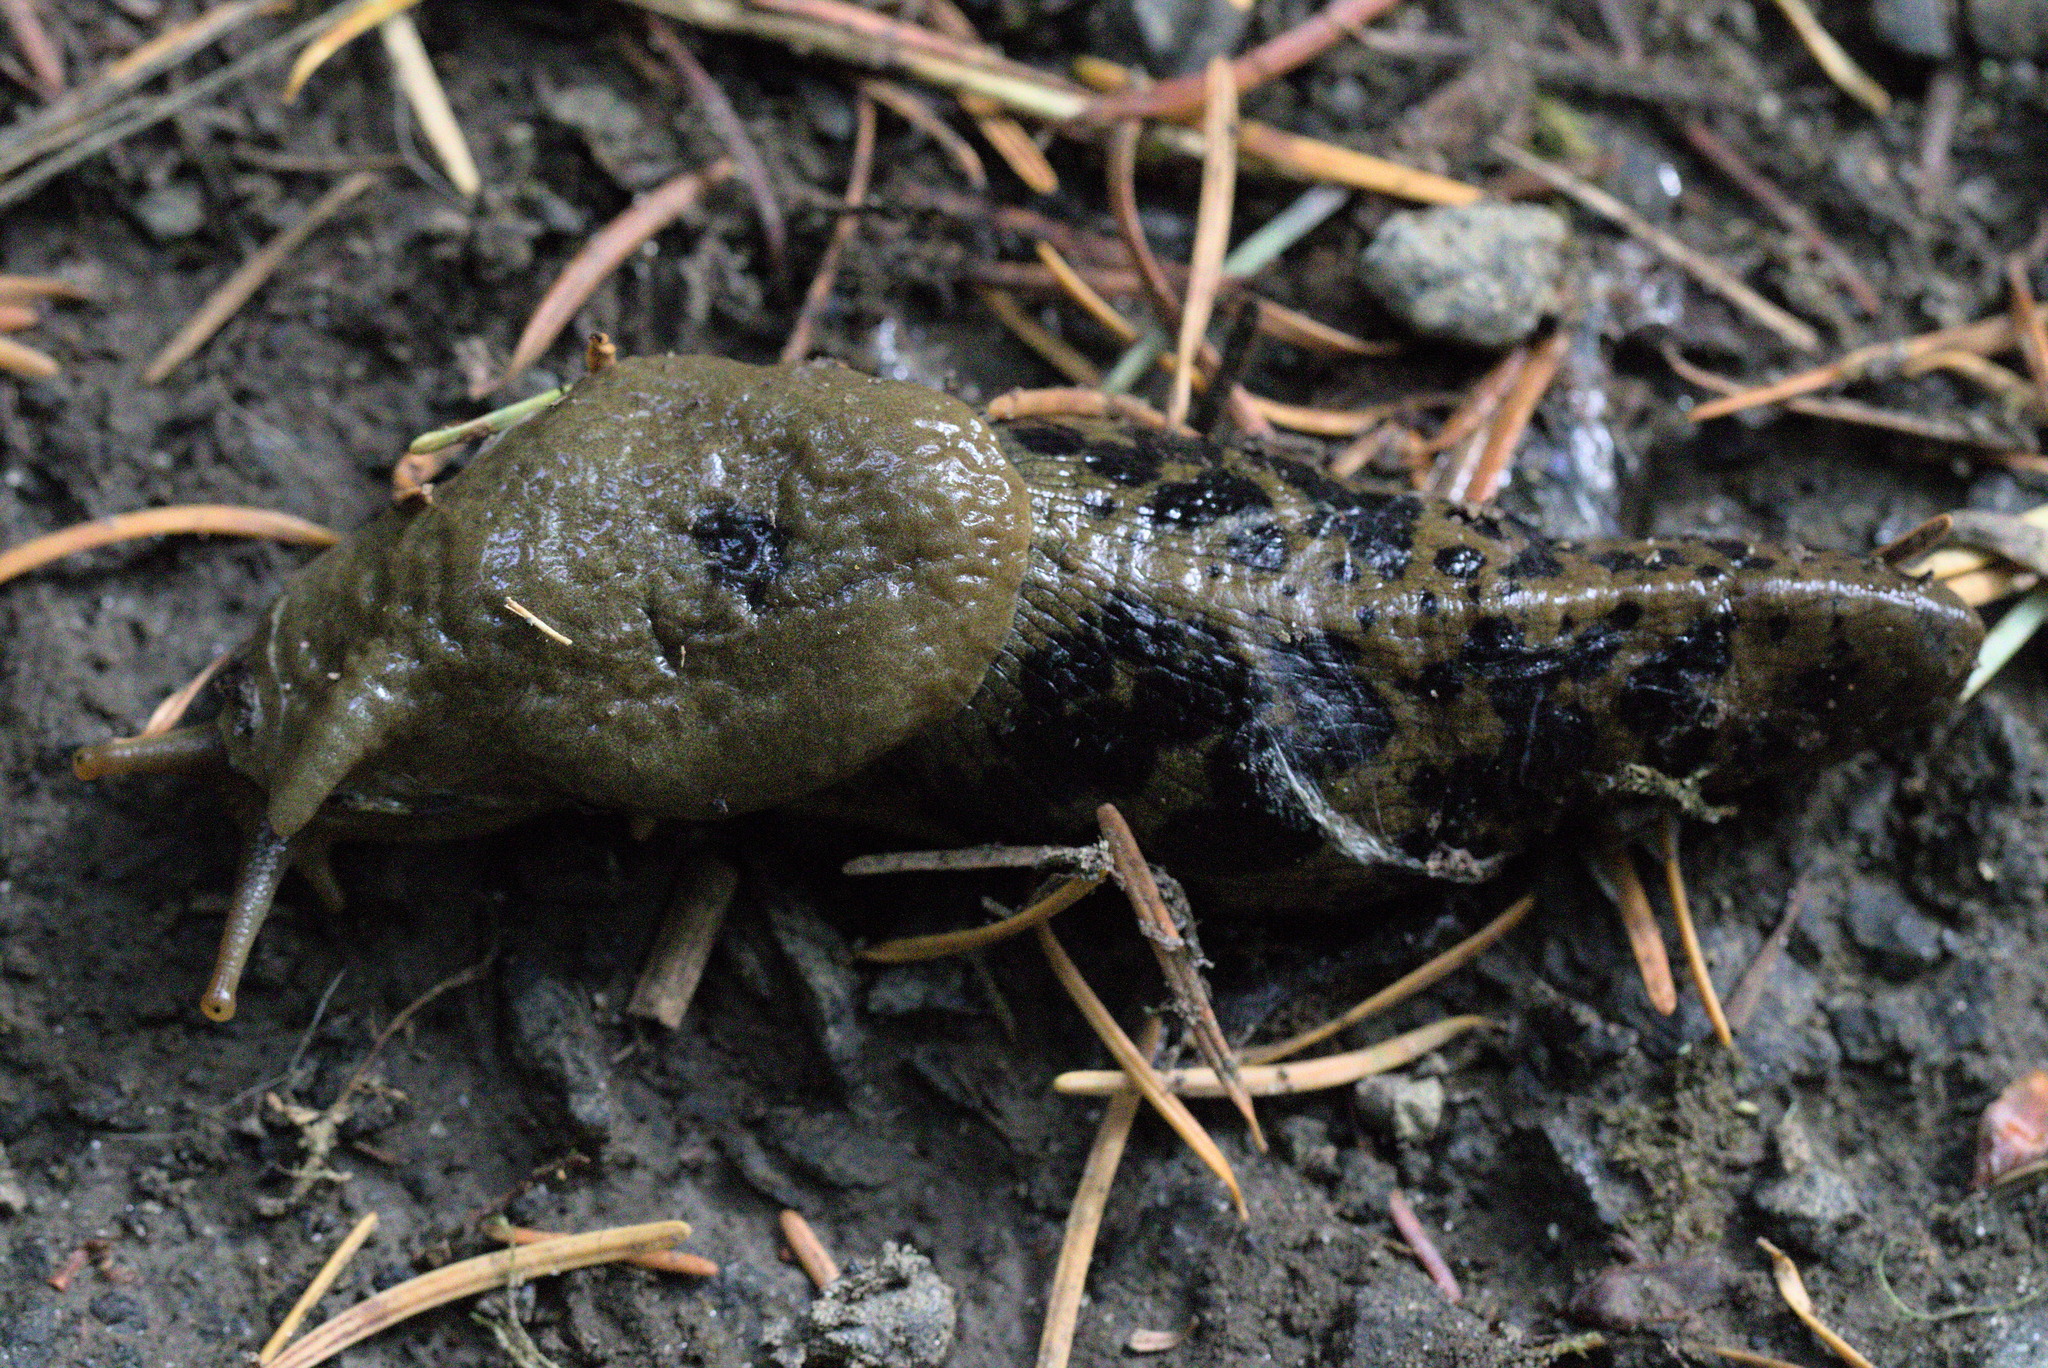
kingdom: Animalia
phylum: Mollusca
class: Gastropoda
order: Stylommatophora
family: Ariolimacidae
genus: Ariolimax
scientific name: Ariolimax columbianus
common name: Pacific banana slug
